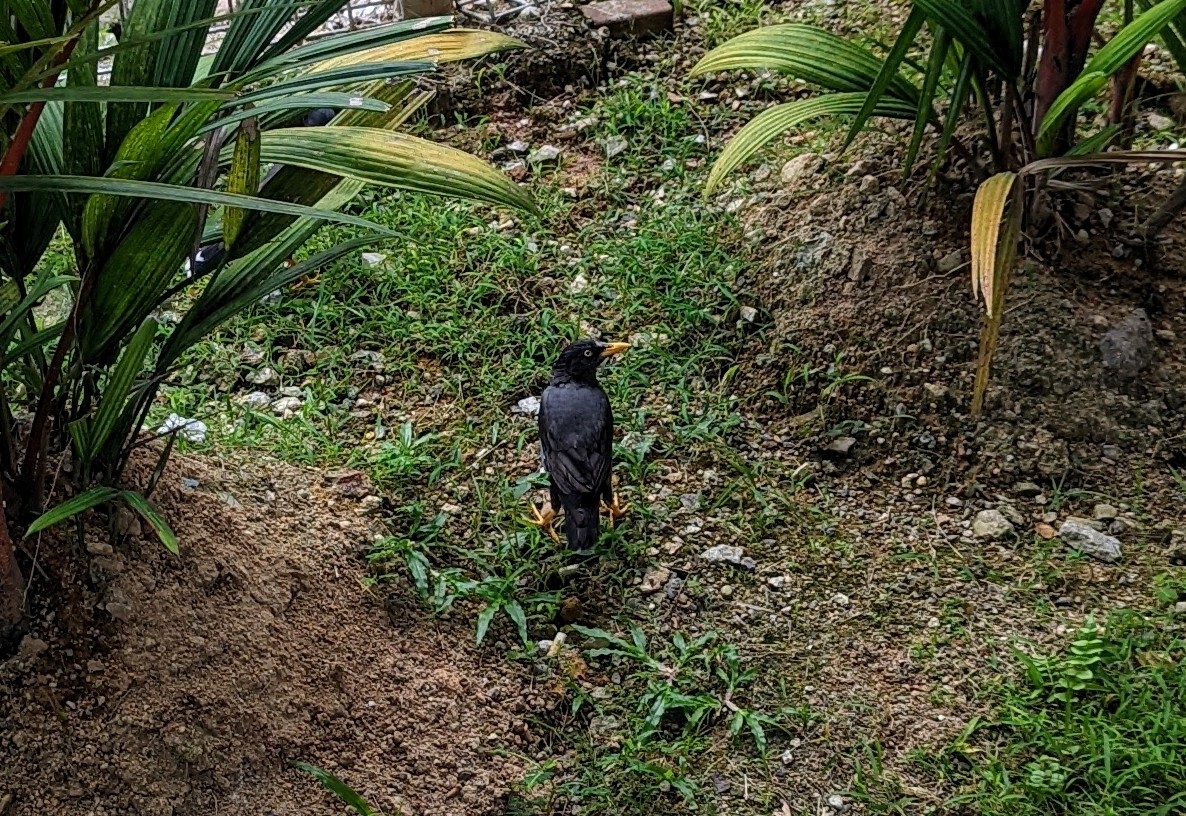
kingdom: Animalia
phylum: Chordata
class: Aves
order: Passeriformes
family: Sturnidae
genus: Acridotheres
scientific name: Acridotheres javanicus
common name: Javan myna
